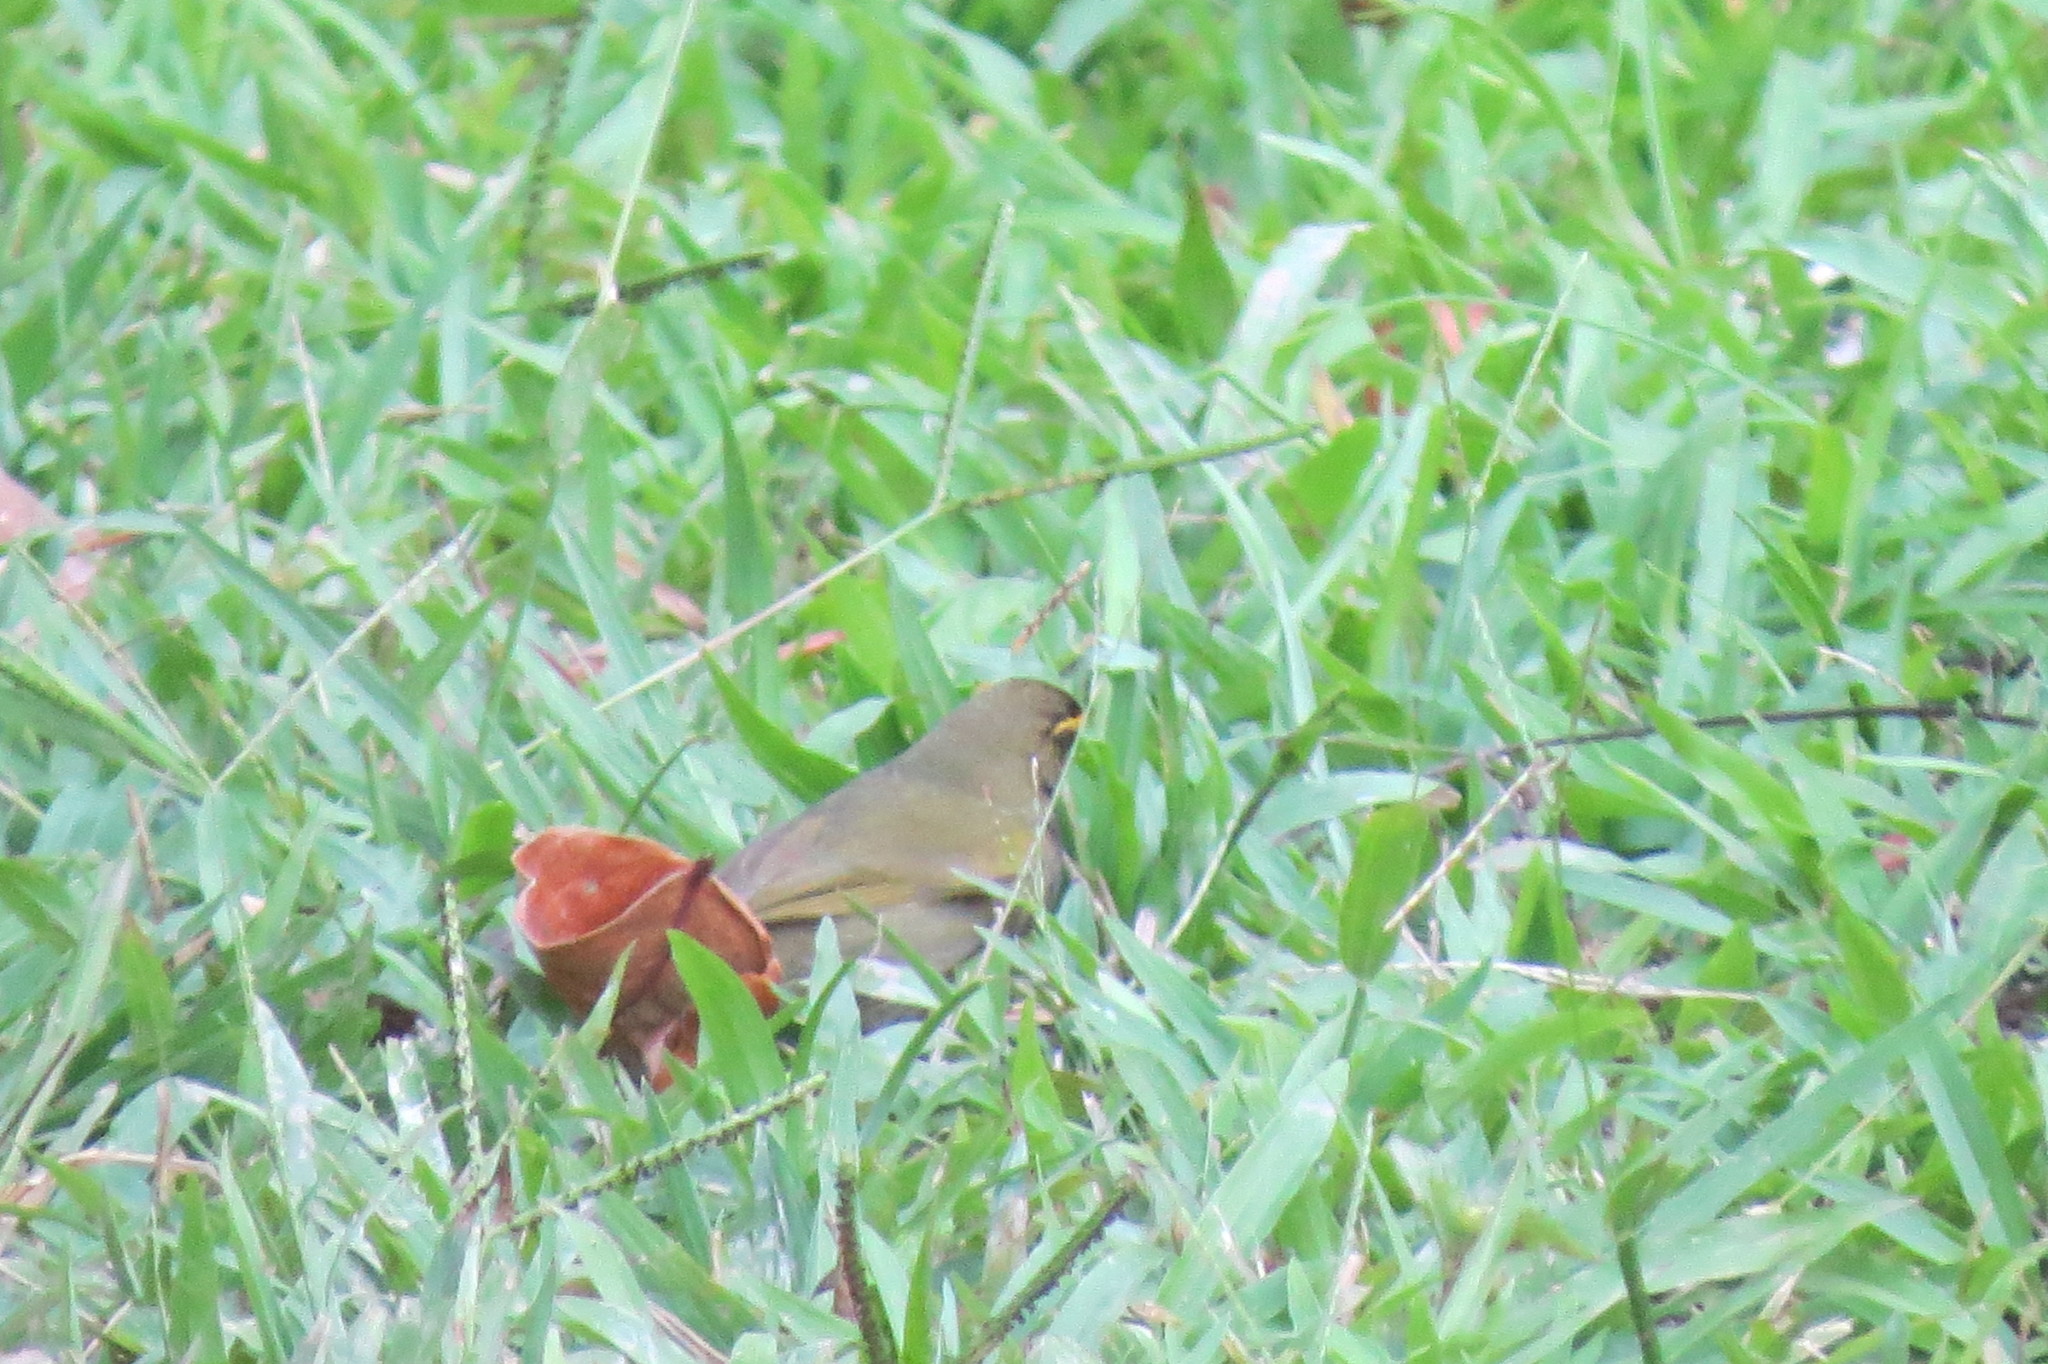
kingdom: Animalia
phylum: Chordata
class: Aves
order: Passeriformes
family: Thraupidae
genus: Tiaris
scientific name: Tiaris olivaceus
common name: Yellow-faced grassquit
